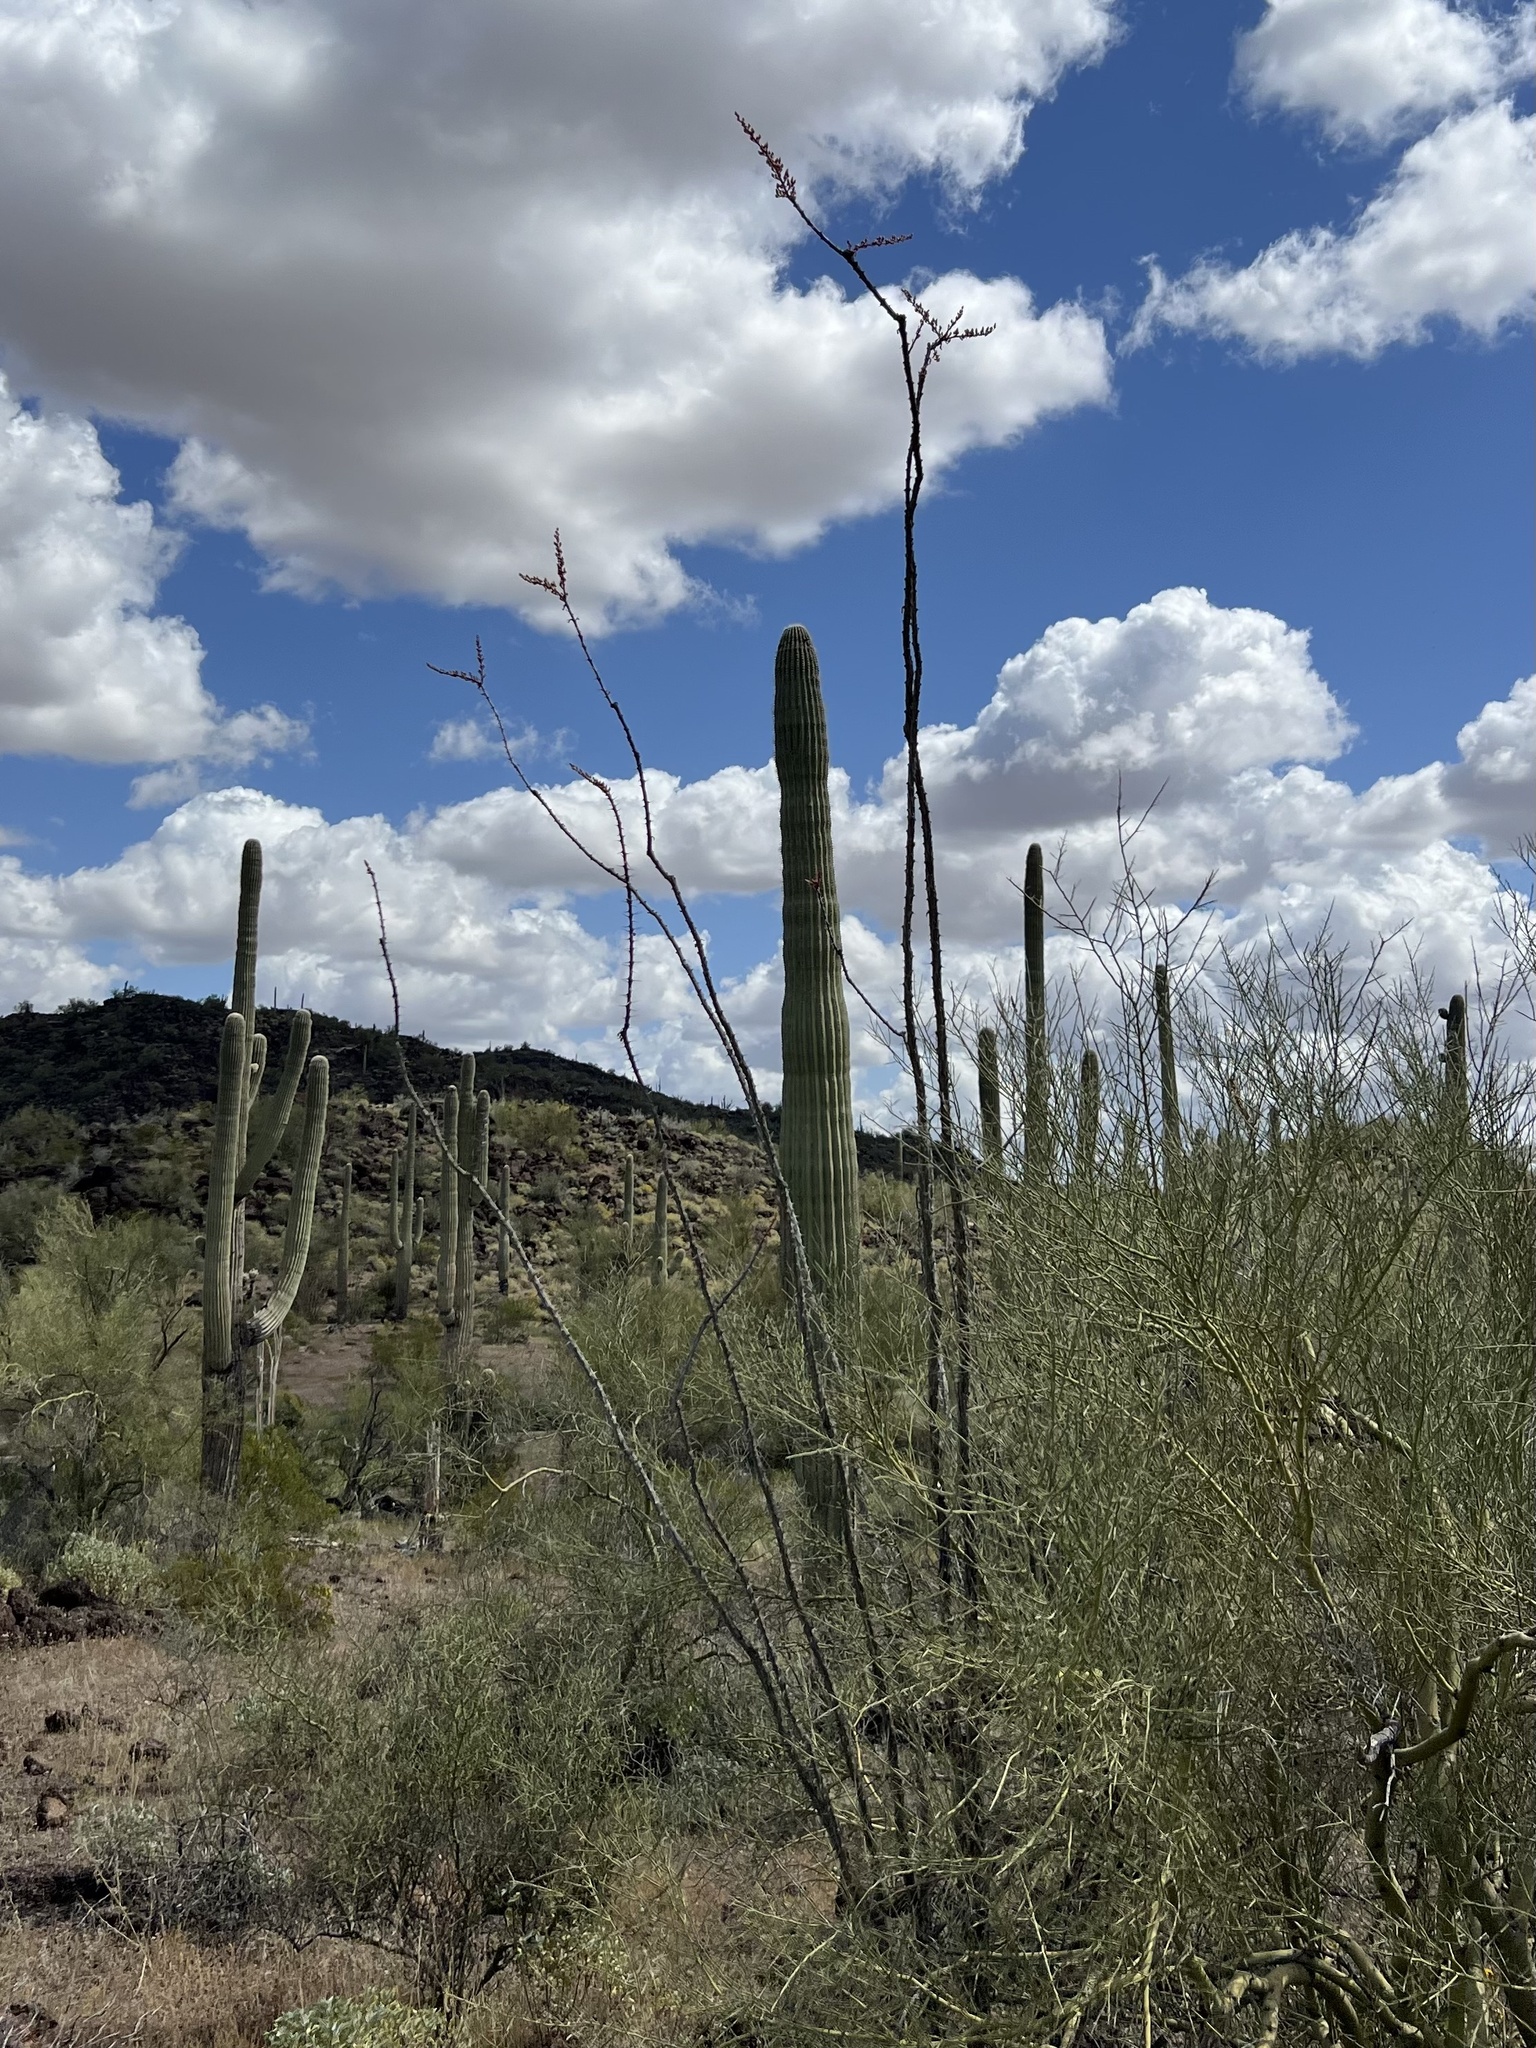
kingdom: Plantae
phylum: Tracheophyta
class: Magnoliopsida
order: Ericales
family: Fouquieriaceae
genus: Fouquieria
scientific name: Fouquieria splendens
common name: Vine-cactus
